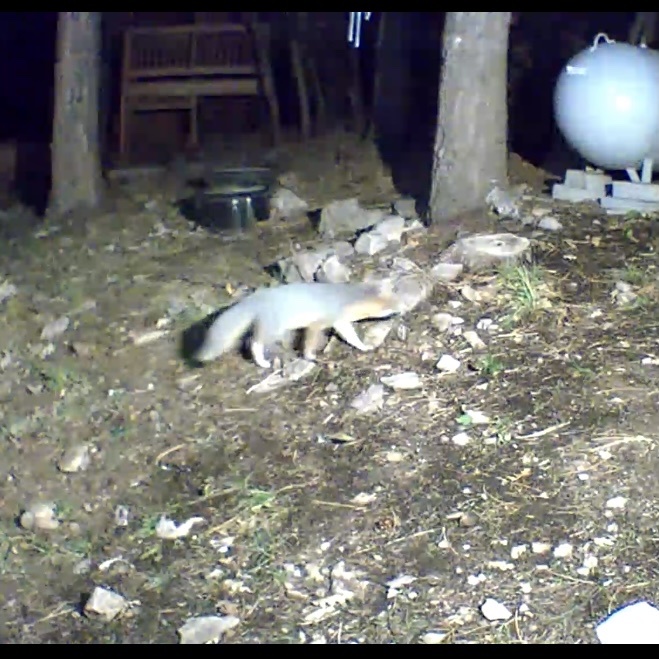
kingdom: Animalia
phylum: Chordata
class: Mammalia
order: Carnivora
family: Canidae
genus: Urocyon
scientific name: Urocyon cinereoargenteus
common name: Gray fox
